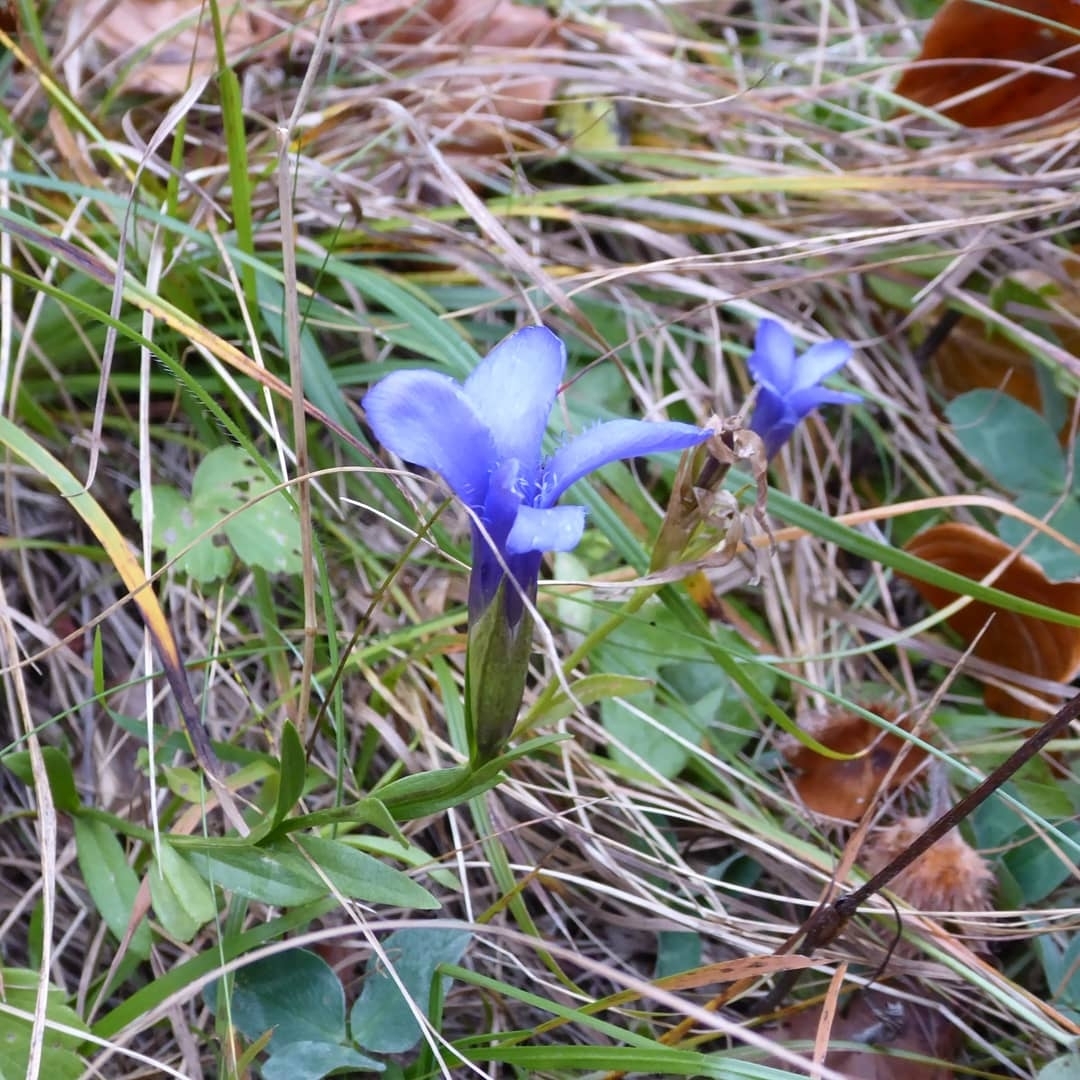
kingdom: Plantae
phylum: Tracheophyta
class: Magnoliopsida
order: Gentianales
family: Gentianaceae
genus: Gentianopsis
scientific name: Gentianopsis ciliata
